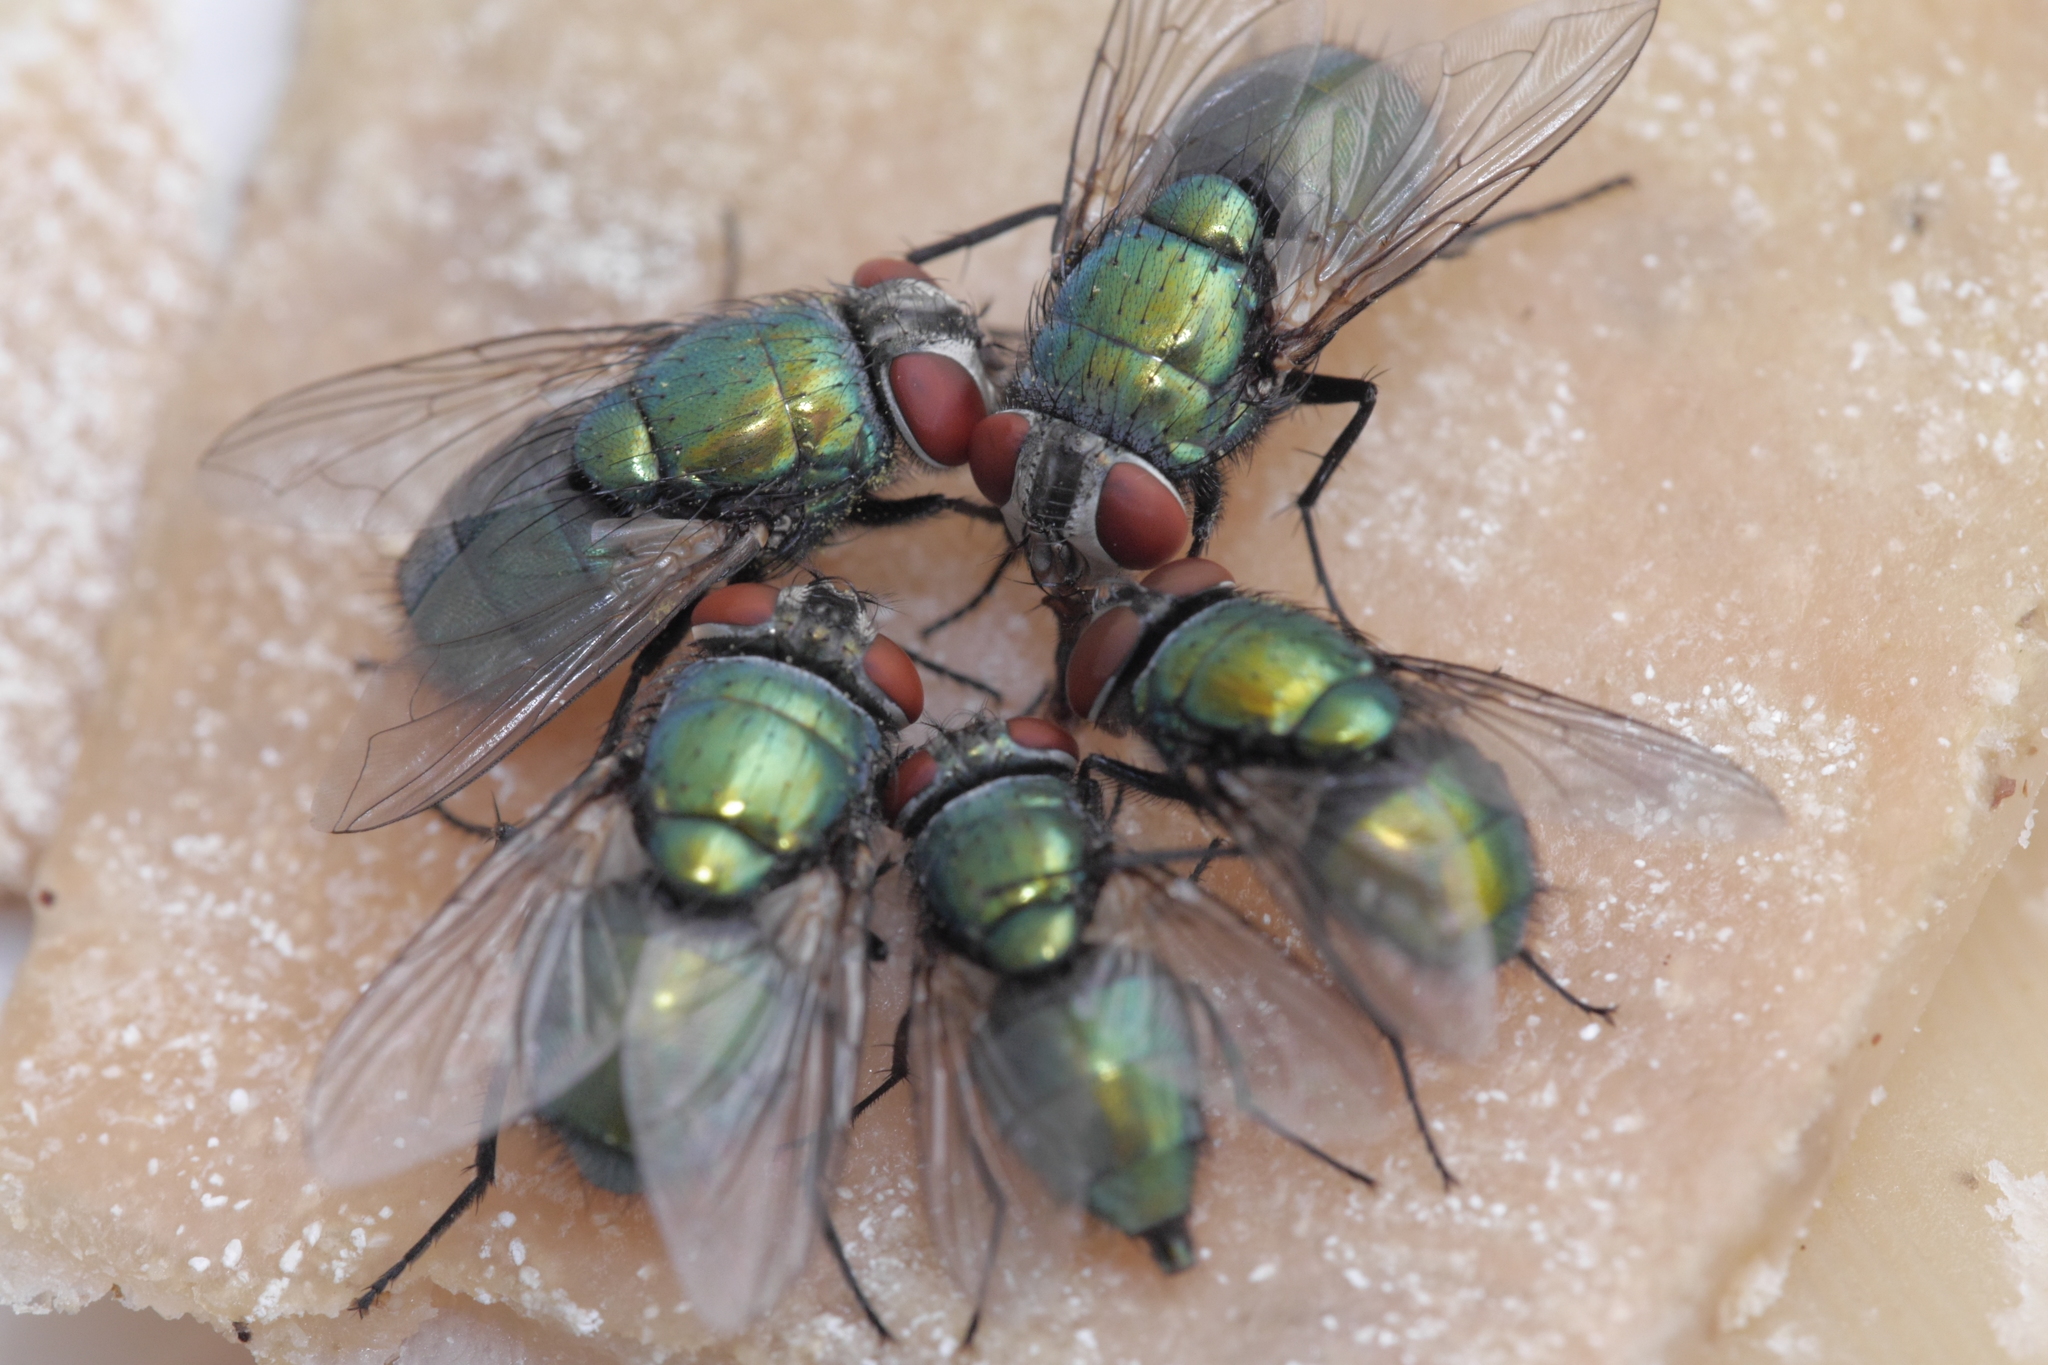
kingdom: Animalia
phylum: Arthropoda
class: Insecta
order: Diptera
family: Calliphoridae
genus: Lucilia
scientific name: Lucilia sericata
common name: Blow fly
